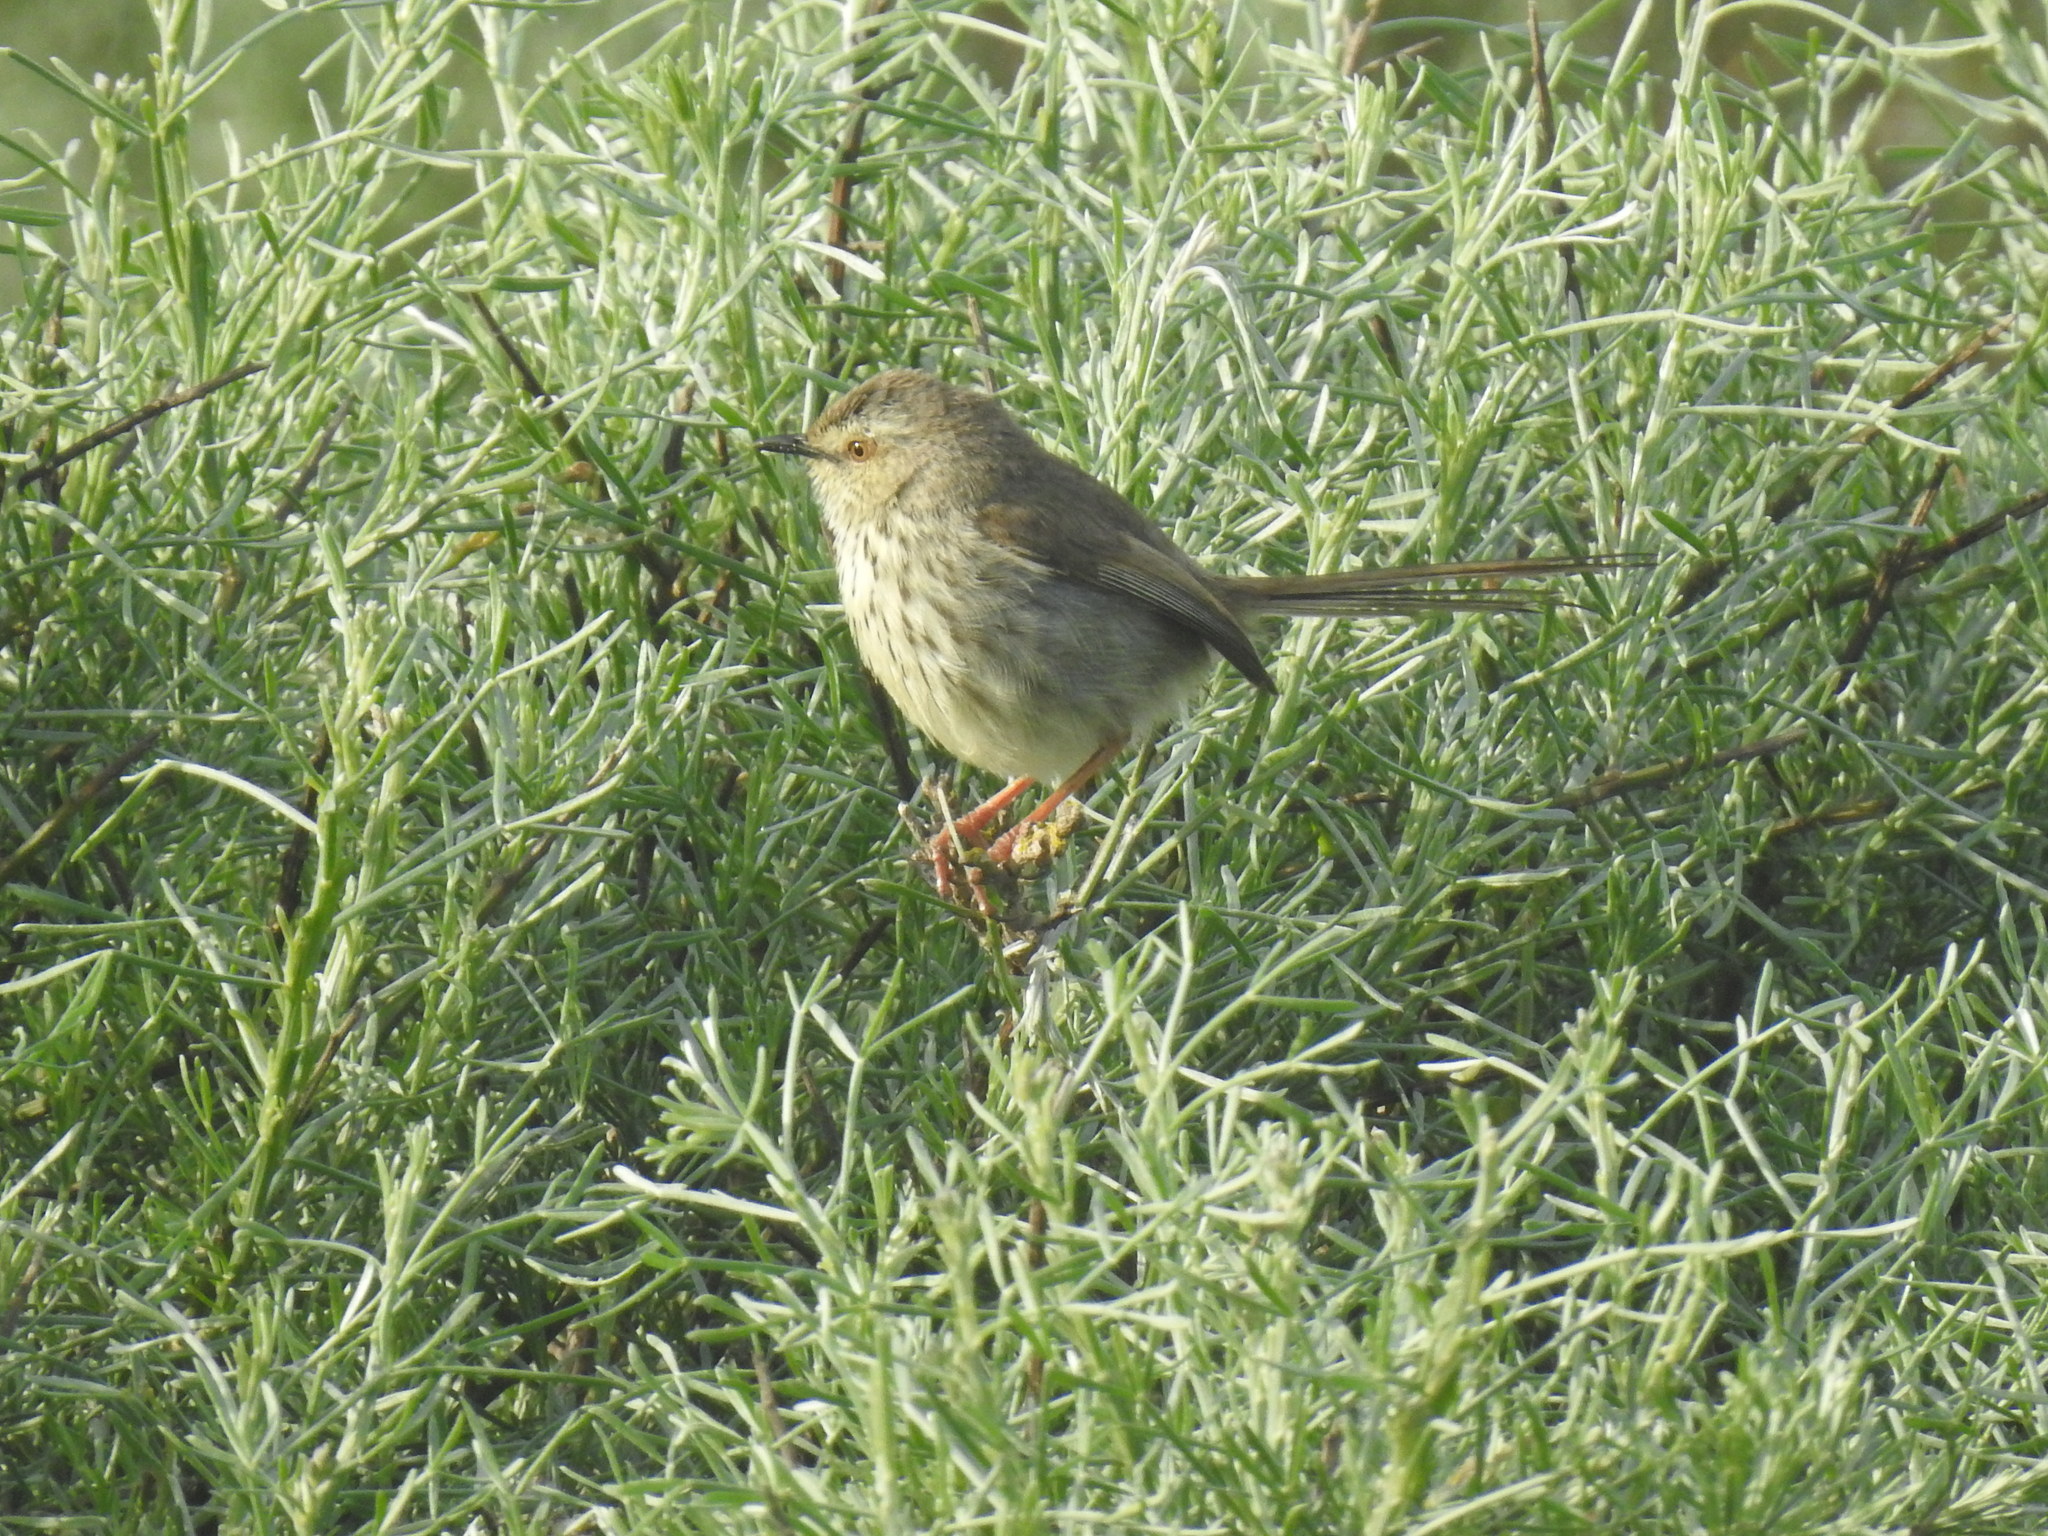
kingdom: Animalia
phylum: Chordata
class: Aves
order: Passeriformes
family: Cisticolidae
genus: Prinia
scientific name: Prinia maculosa
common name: Karoo prinia
